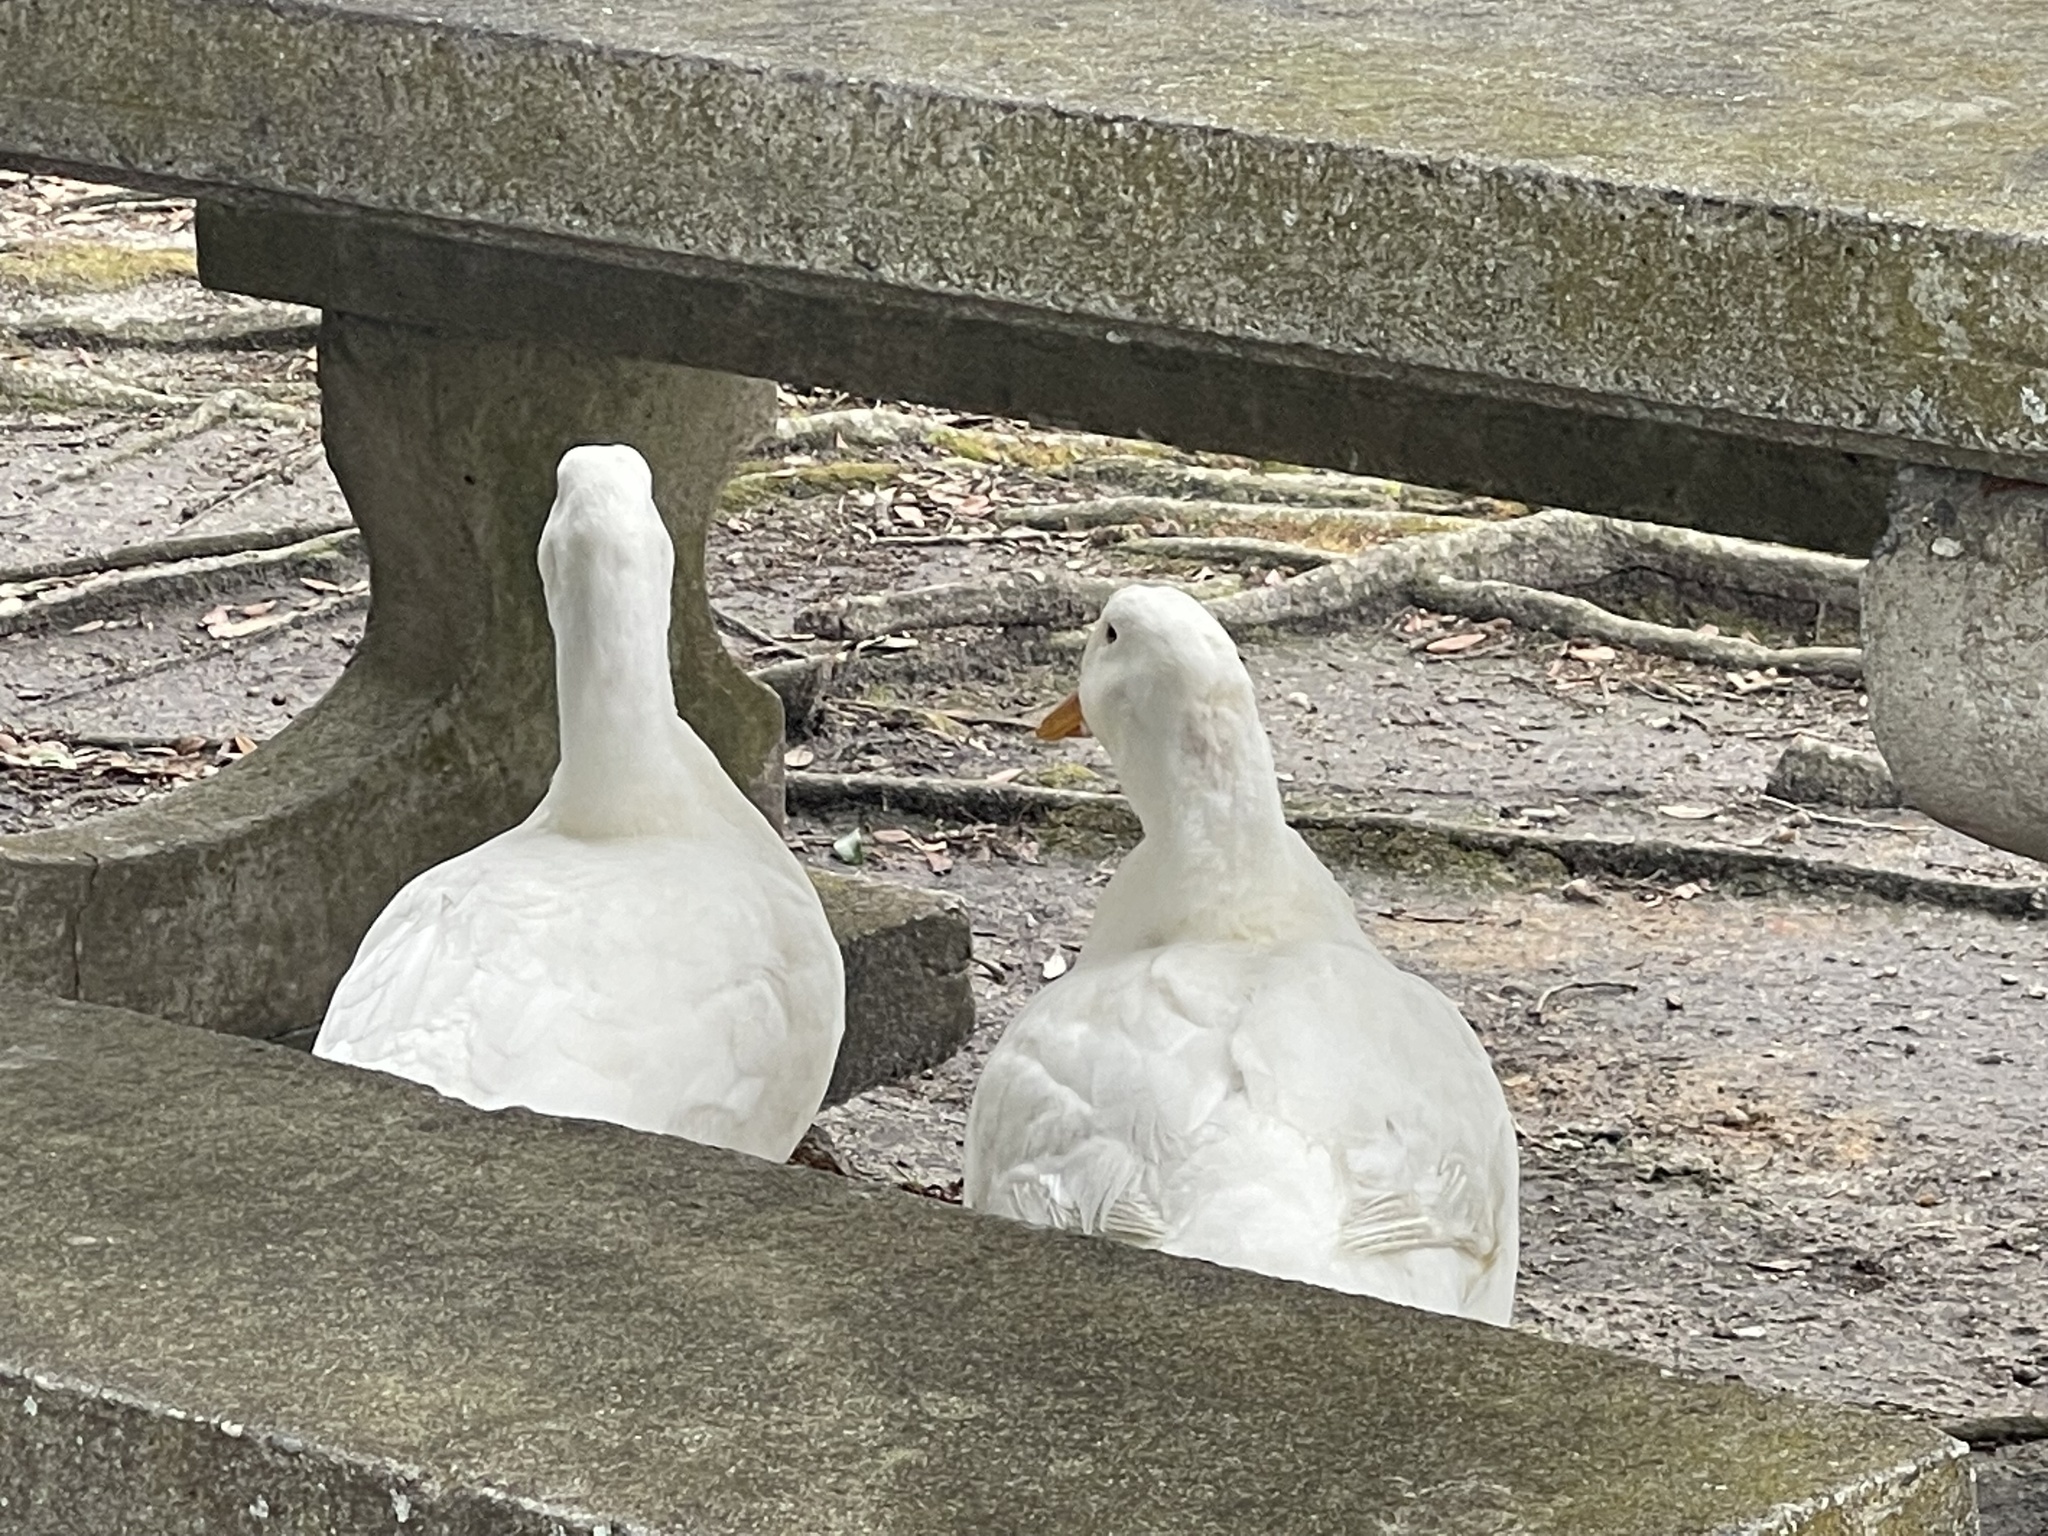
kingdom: Animalia
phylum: Chordata
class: Aves
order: Anseriformes
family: Anatidae
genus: Anas
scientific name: Anas platyrhynchos
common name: Mallard
